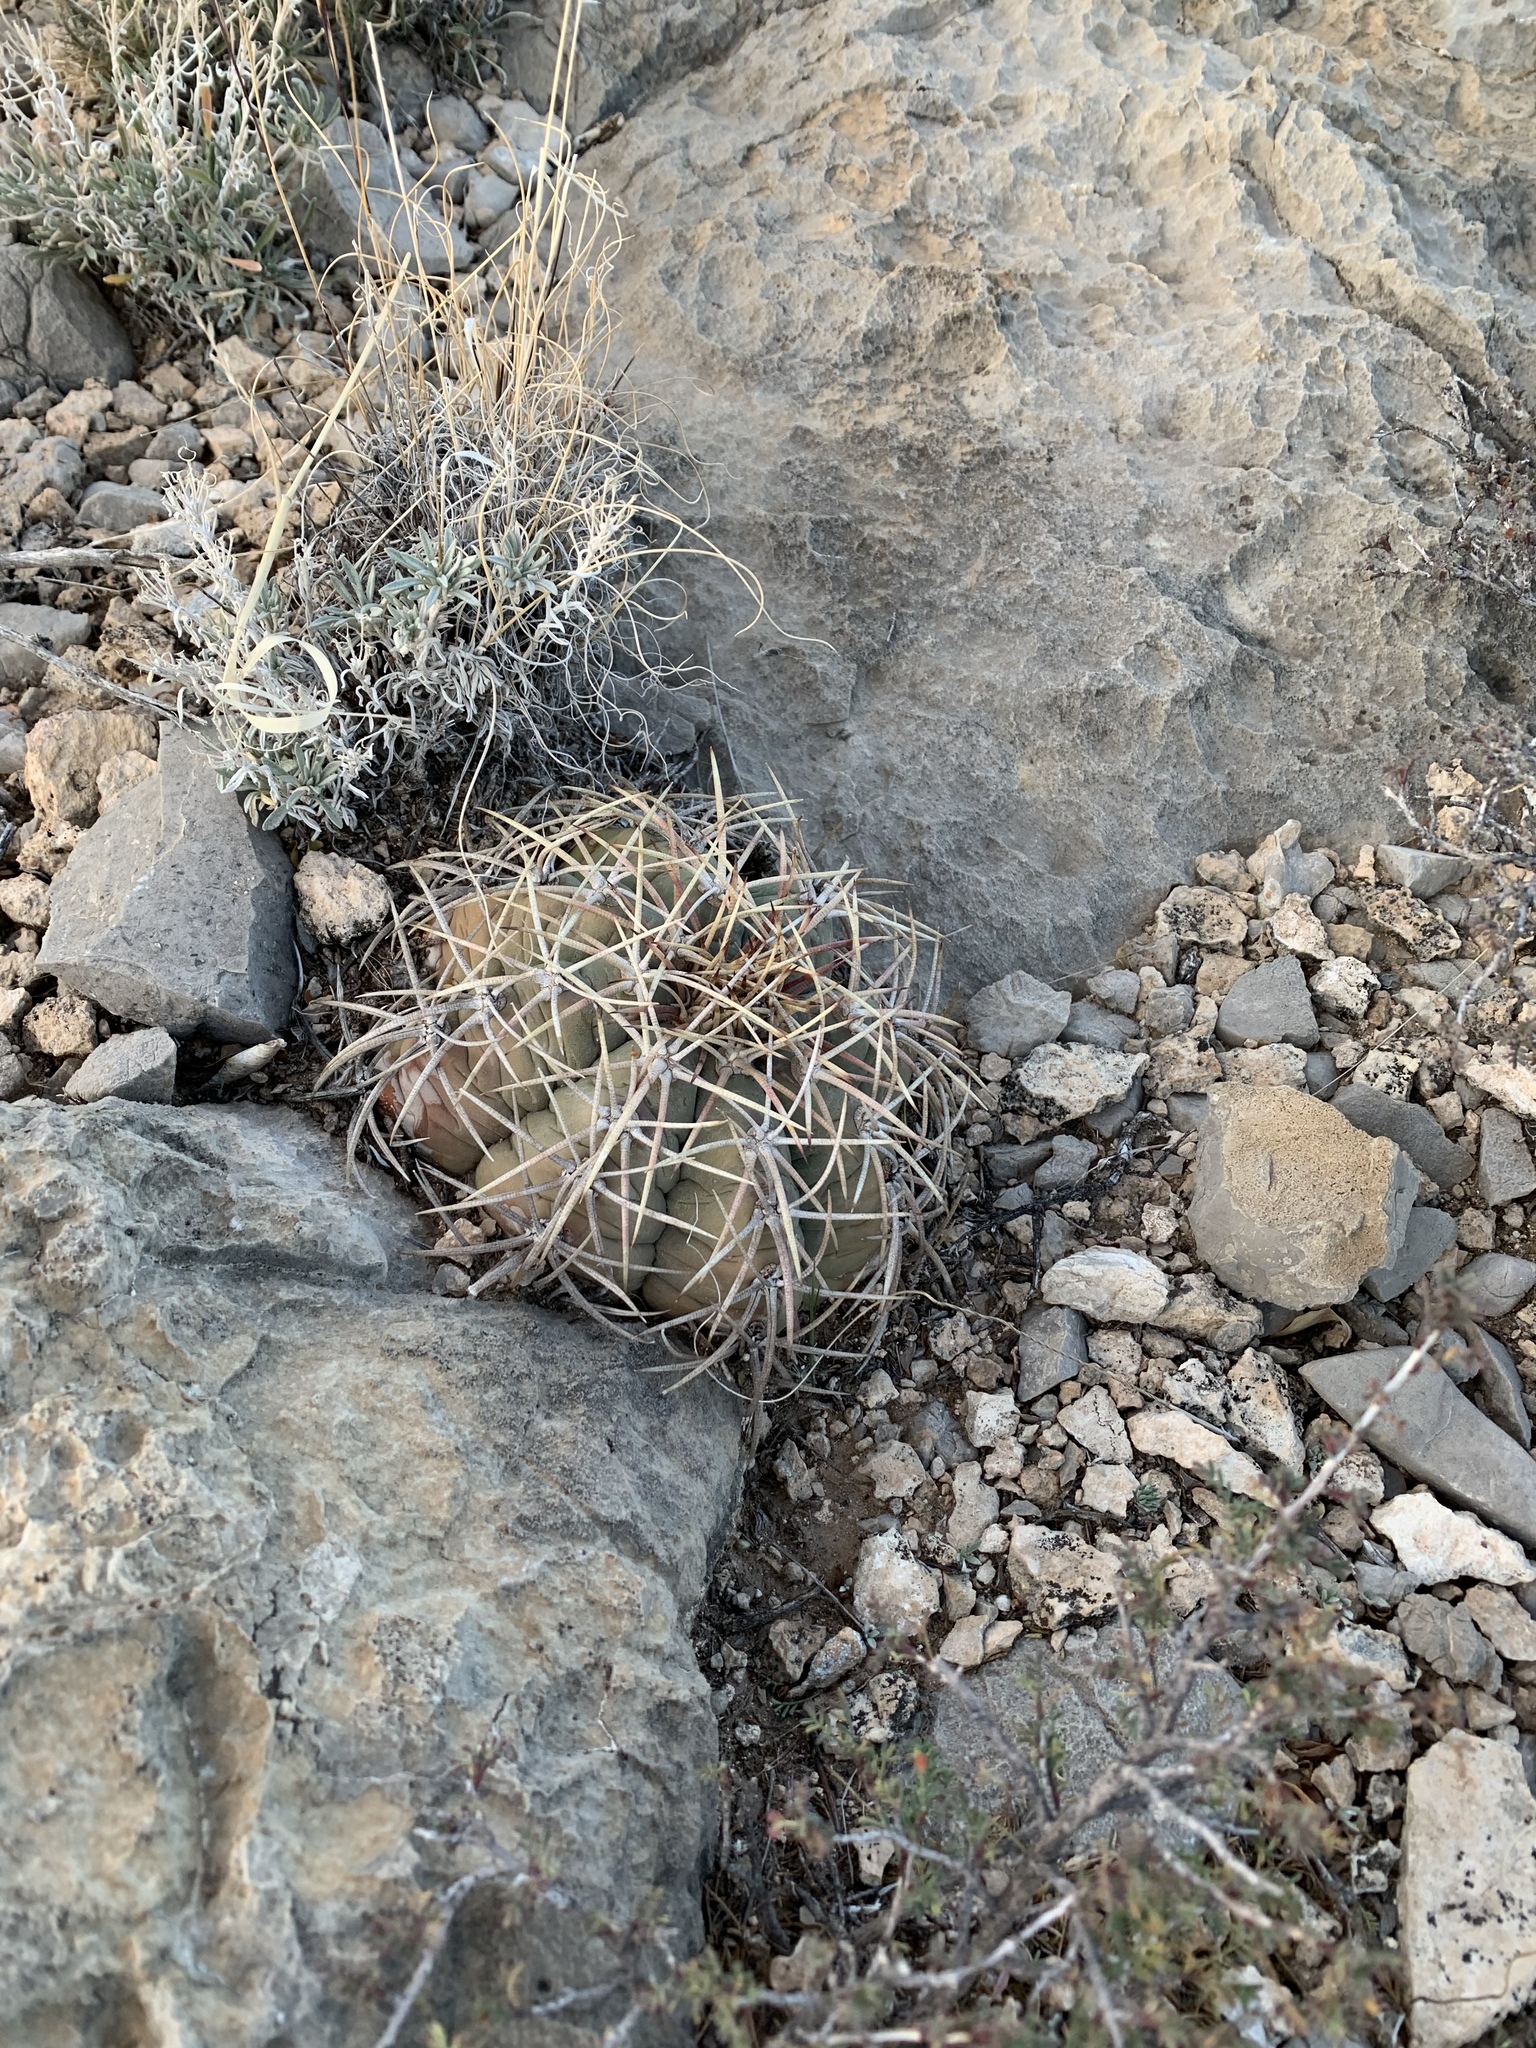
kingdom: Plantae
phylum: Tracheophyta
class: Magnoliopsida
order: Caryophyllales
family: Cactaceae
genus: Echinocactus
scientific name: Echinocactus horizonthalonius
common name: Devilshead
